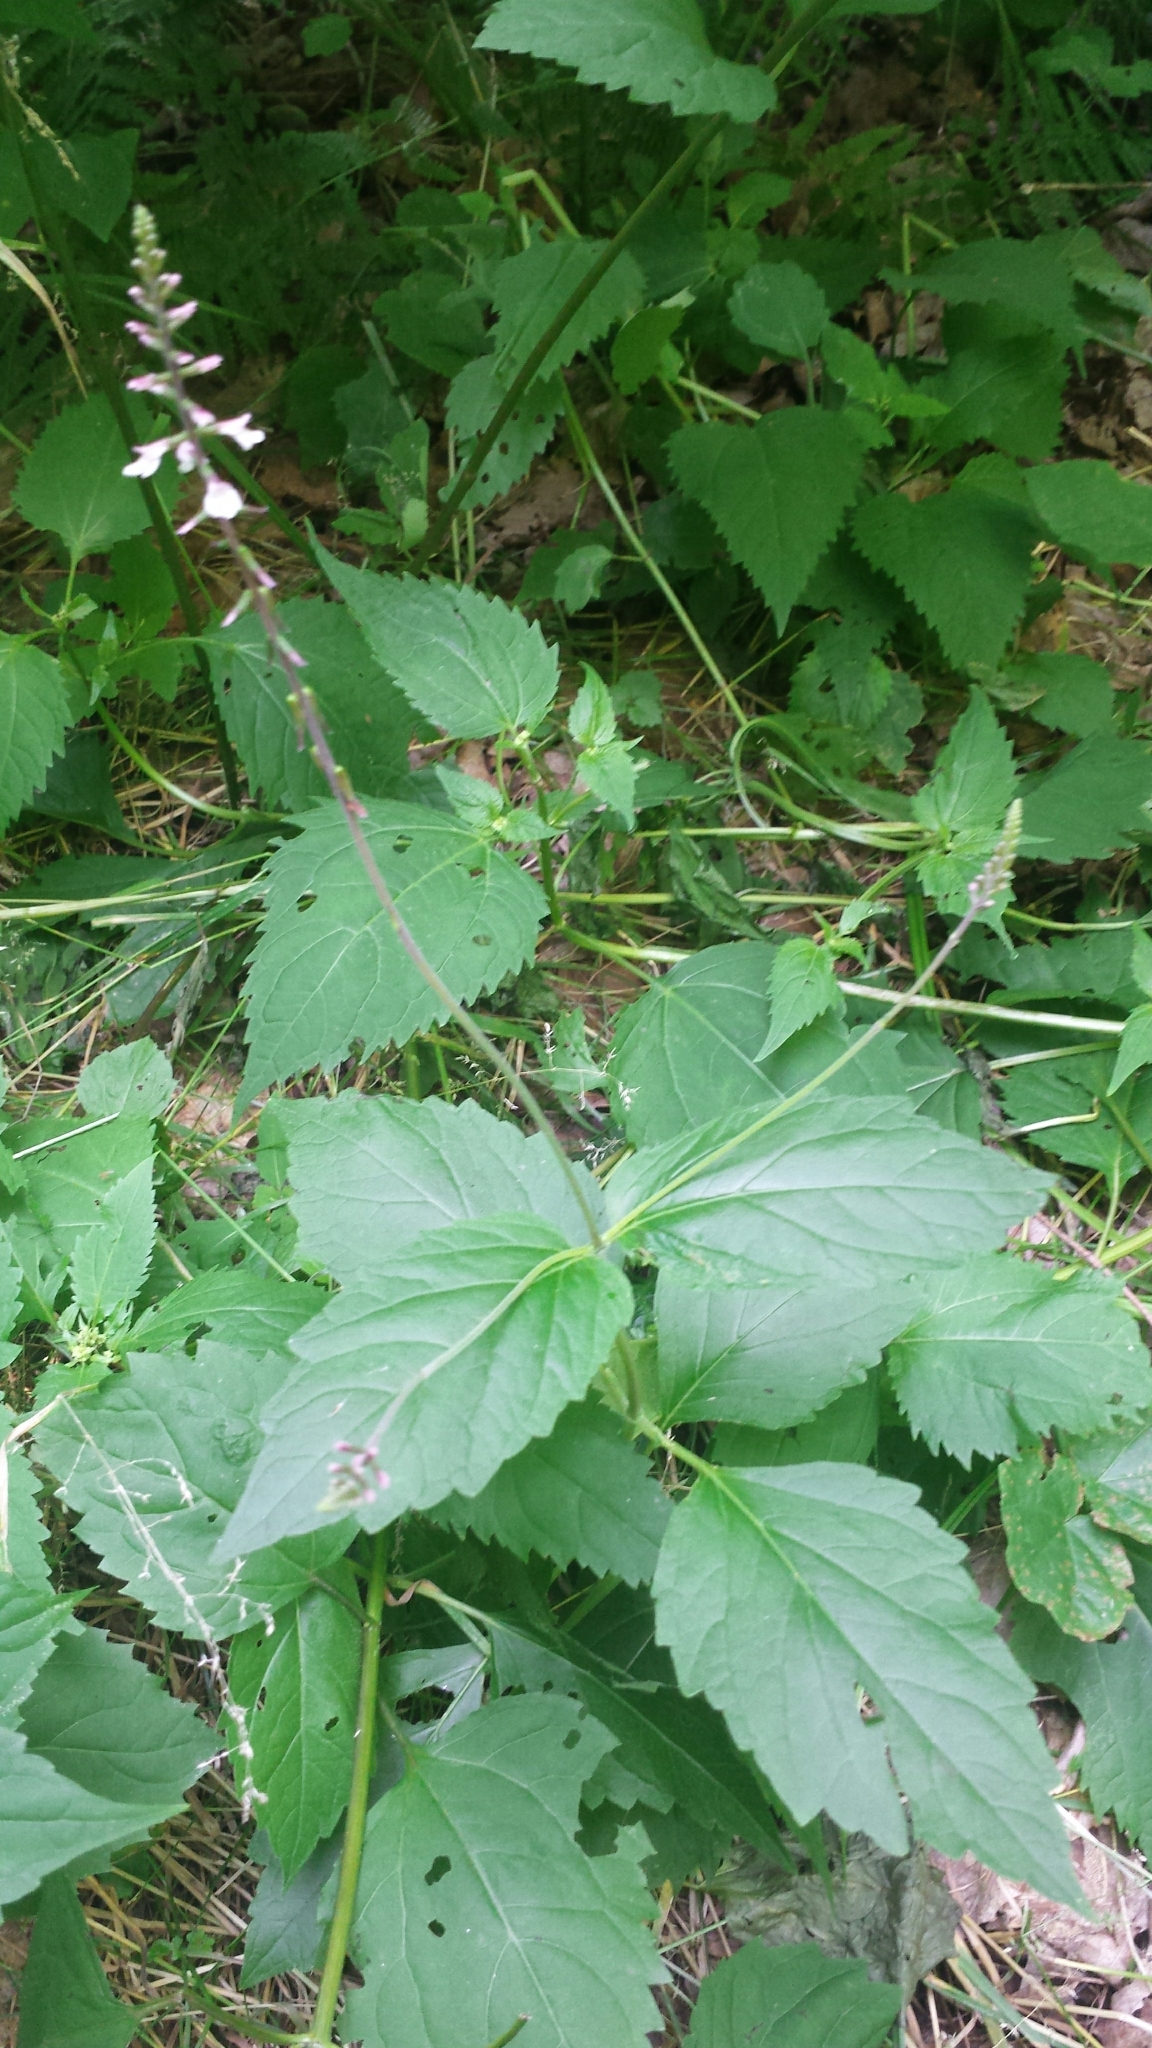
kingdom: Plantae
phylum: Tracheophyta
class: Magnoliopsida
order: Lamiales
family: Phrymaceae
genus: Phryma
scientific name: Phryma leptostachya
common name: American lopseed
